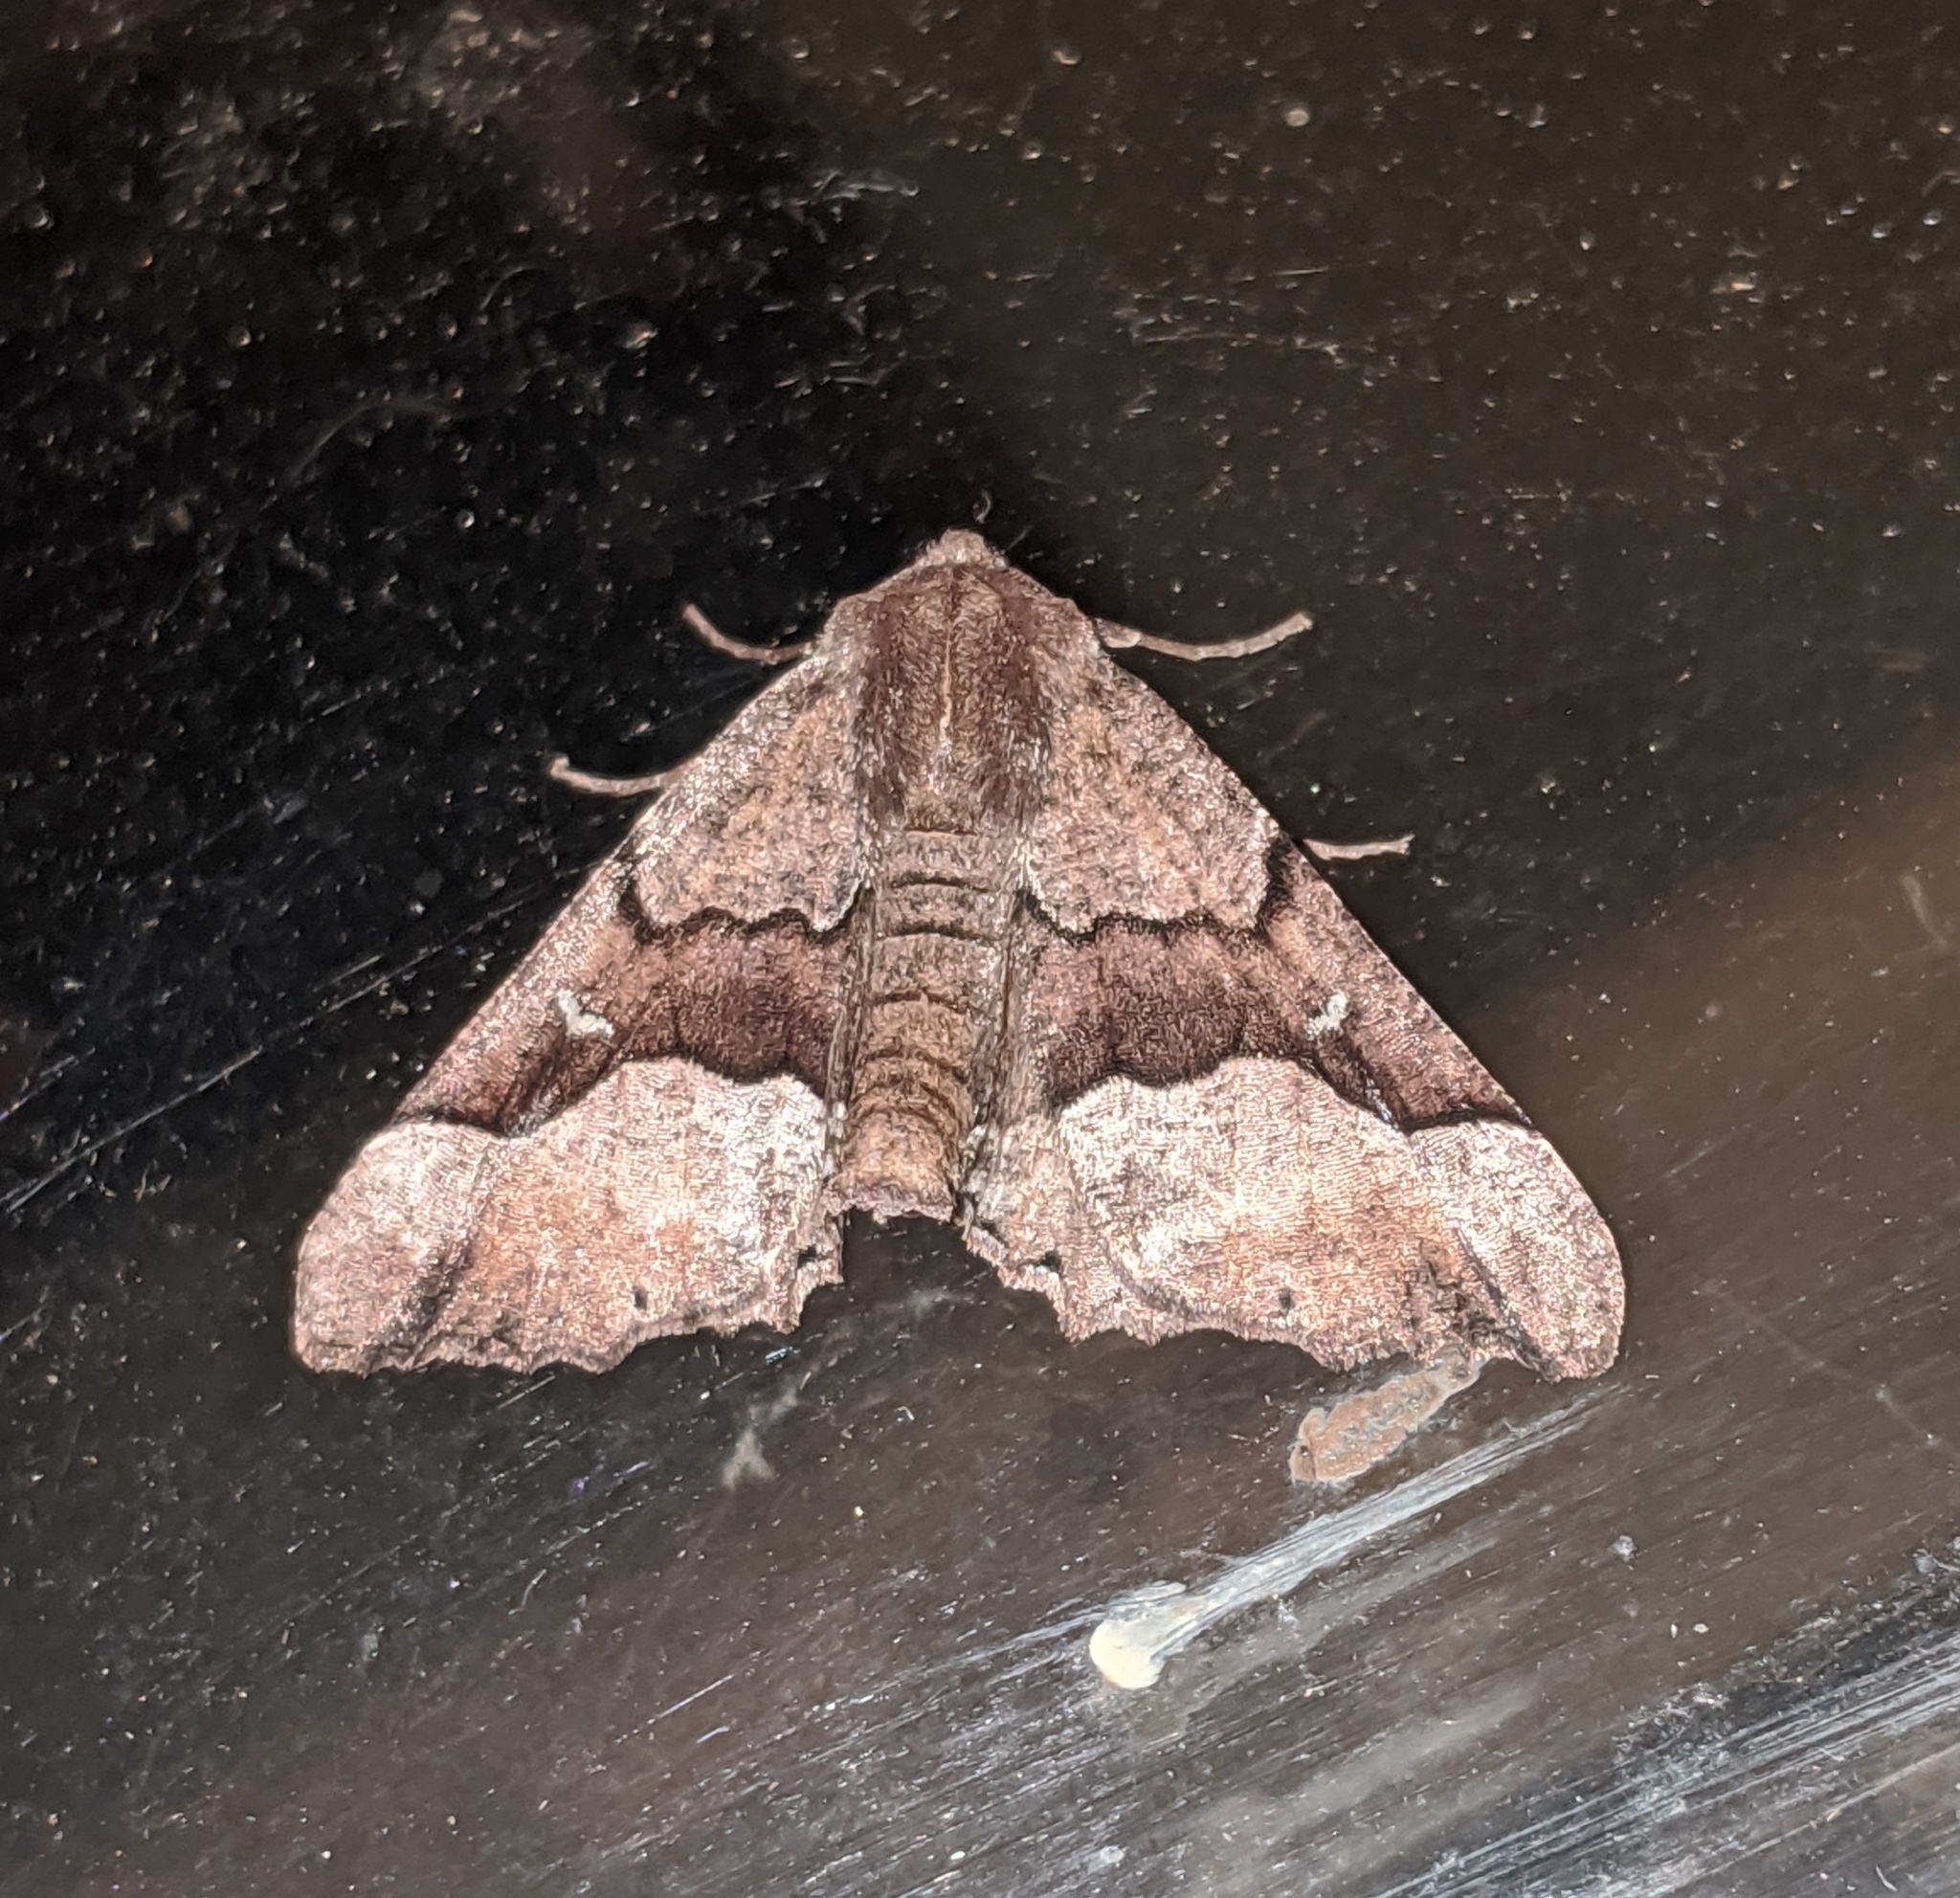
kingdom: Animalia
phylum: Arthropoda
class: Insecta
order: Lepidoptera
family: Geometridae
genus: Pero
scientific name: Pero behrensaria
